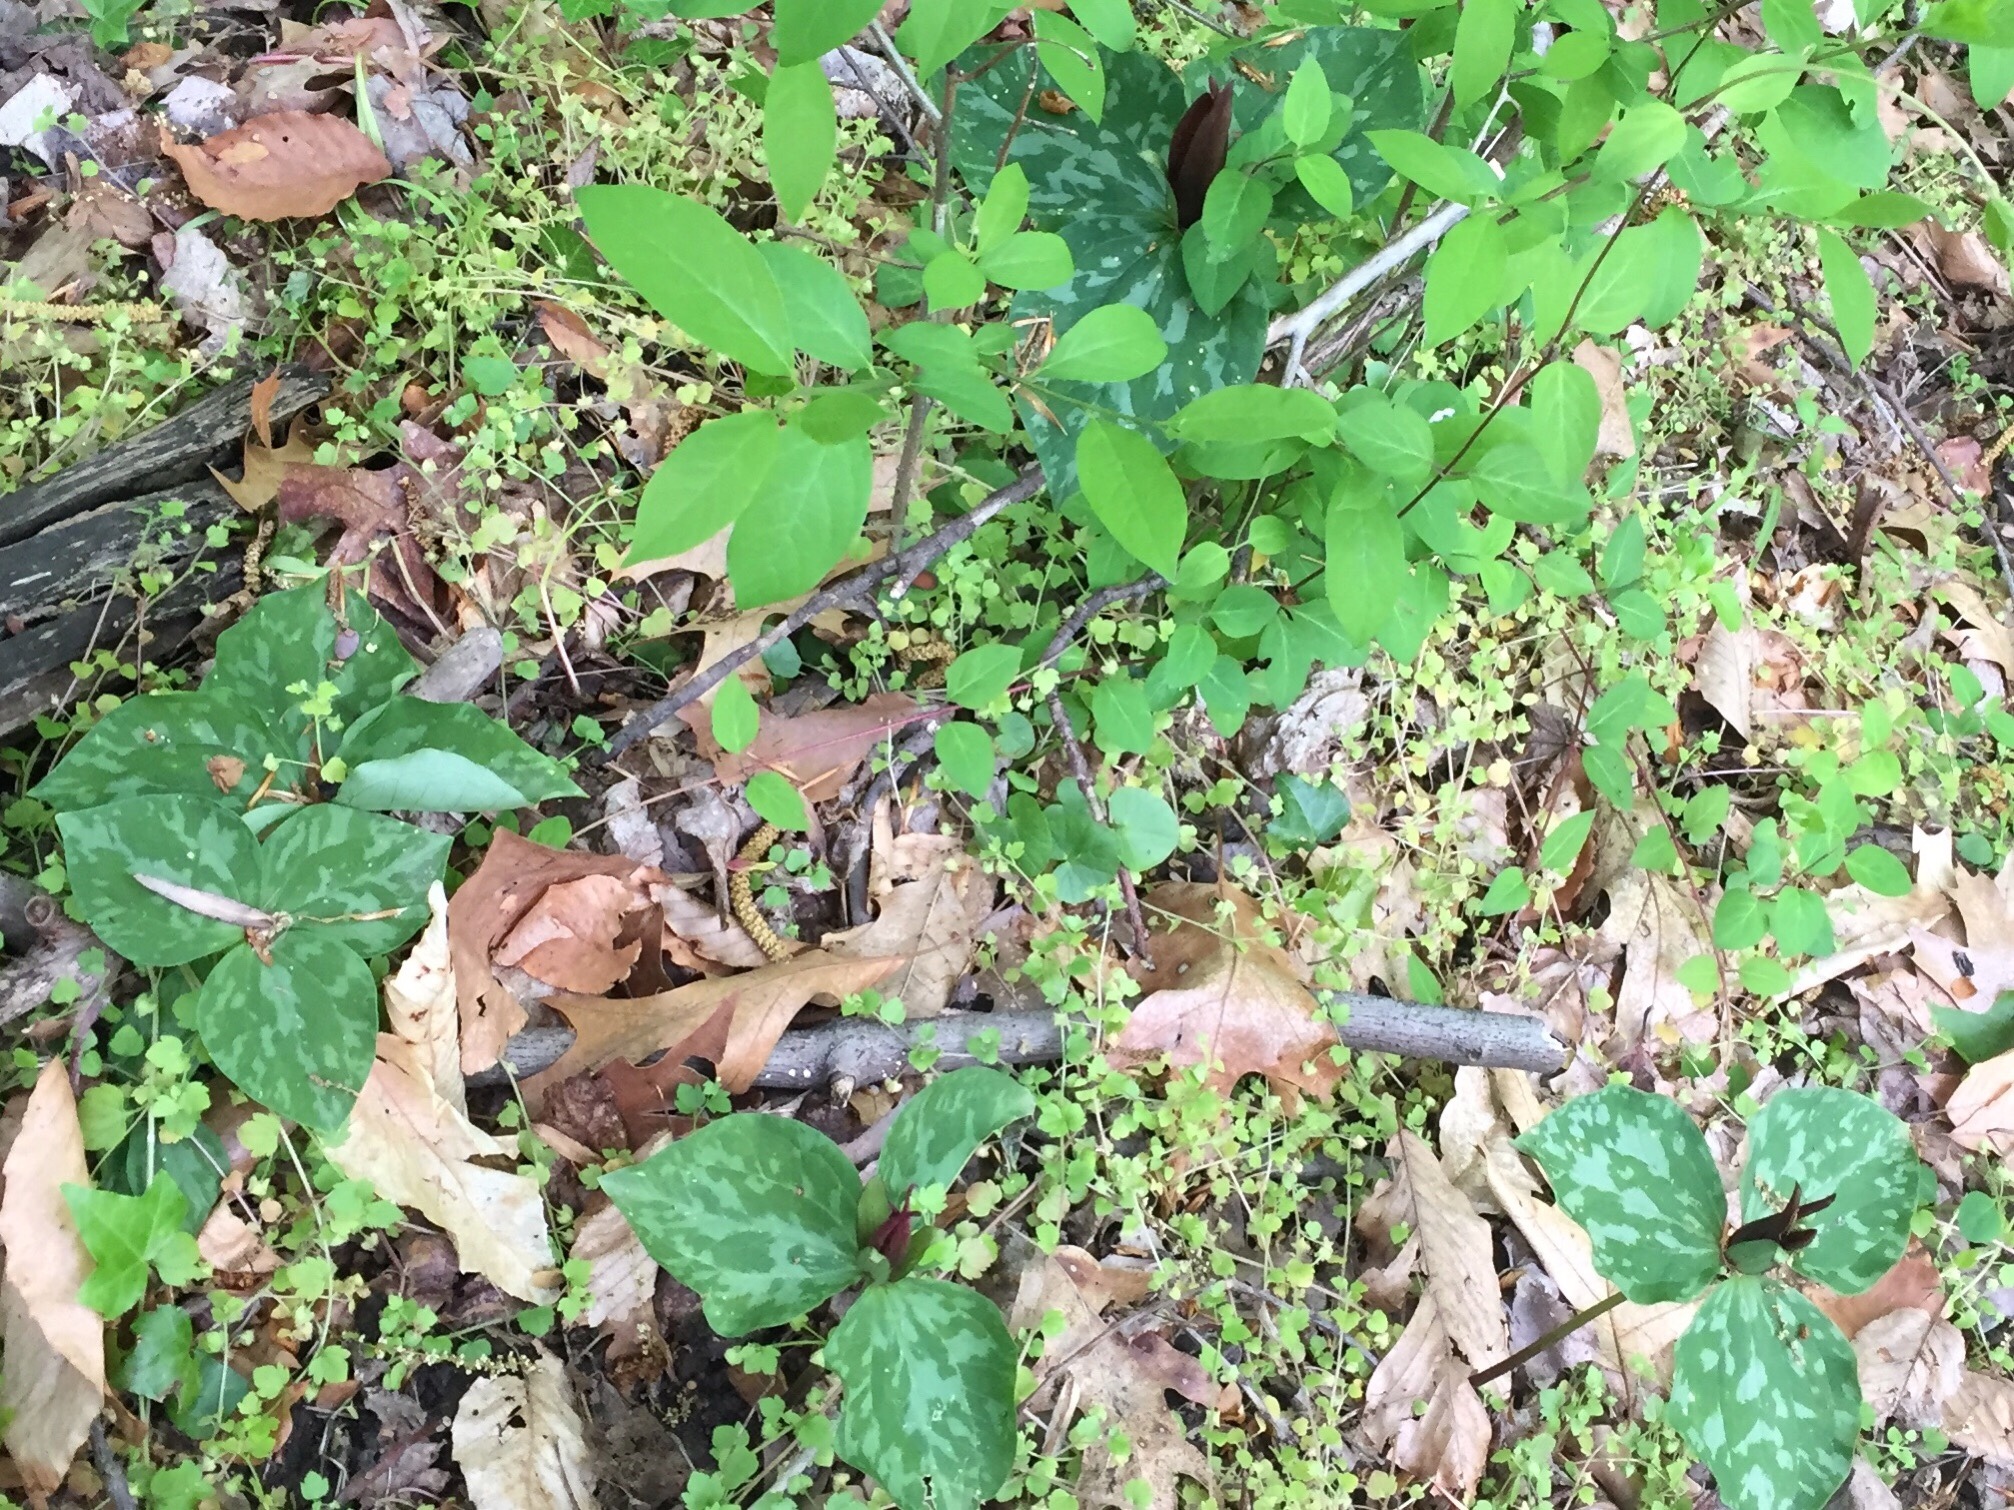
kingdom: Plantae
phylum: Tracheophyta
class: Liliopsida
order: Liliales
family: Melanthiaceae
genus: Trillium
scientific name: Trillium cuneatum
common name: Cuneate trillium
